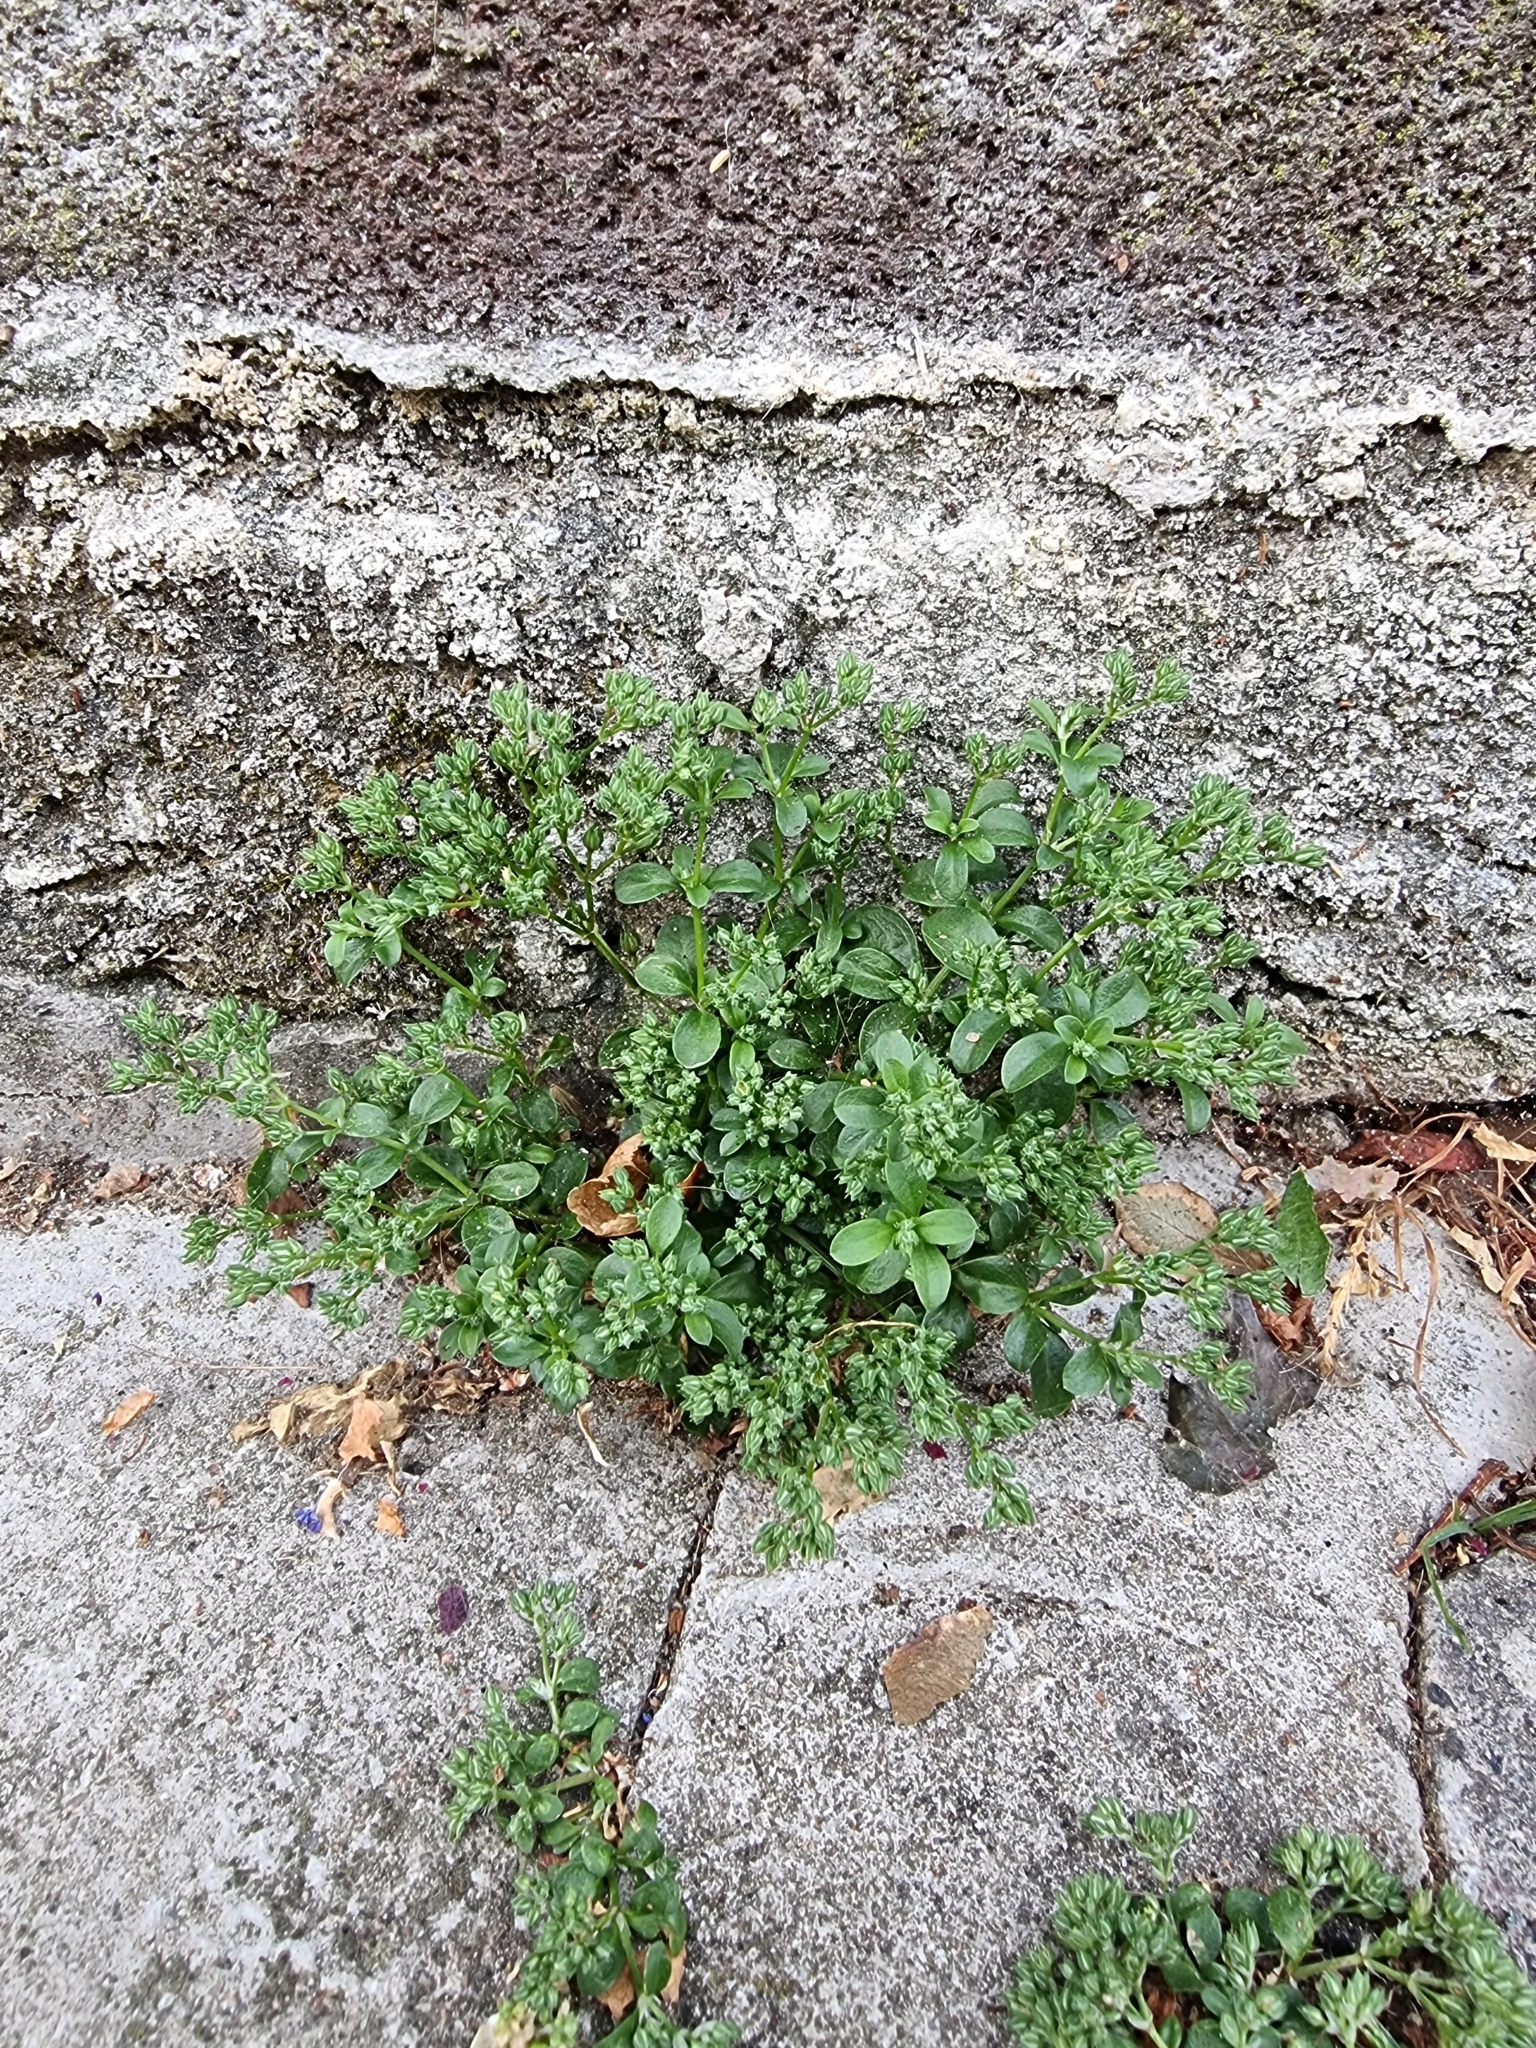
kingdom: Plantae
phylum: Tracheophyta
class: Magnoliopsida
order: Caryophyllales
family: Caryophyllaceae
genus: Polycarpon
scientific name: Polycarpon tetraphyllum
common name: Four-leaved all-seed
